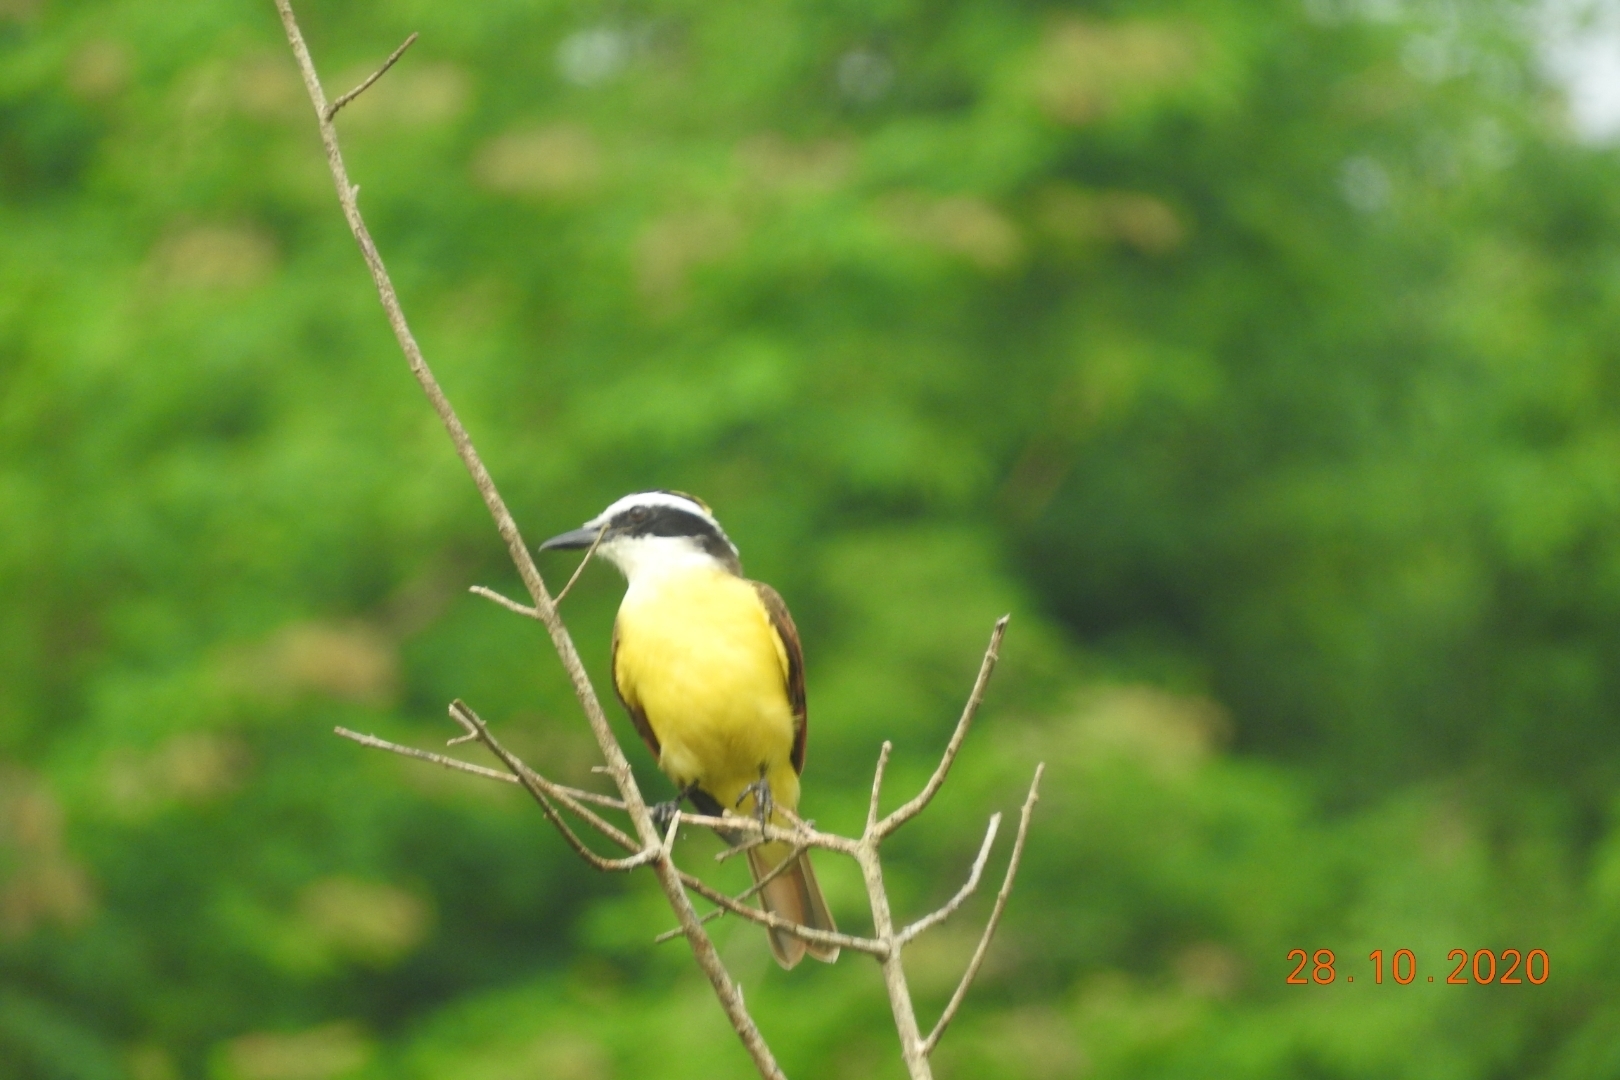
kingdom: Animalia
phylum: Chordata
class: Aves
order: Passeriformes
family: Tyrannidae
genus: Pitangus
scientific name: Pitangus sulphuratus
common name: Great kiskadee
